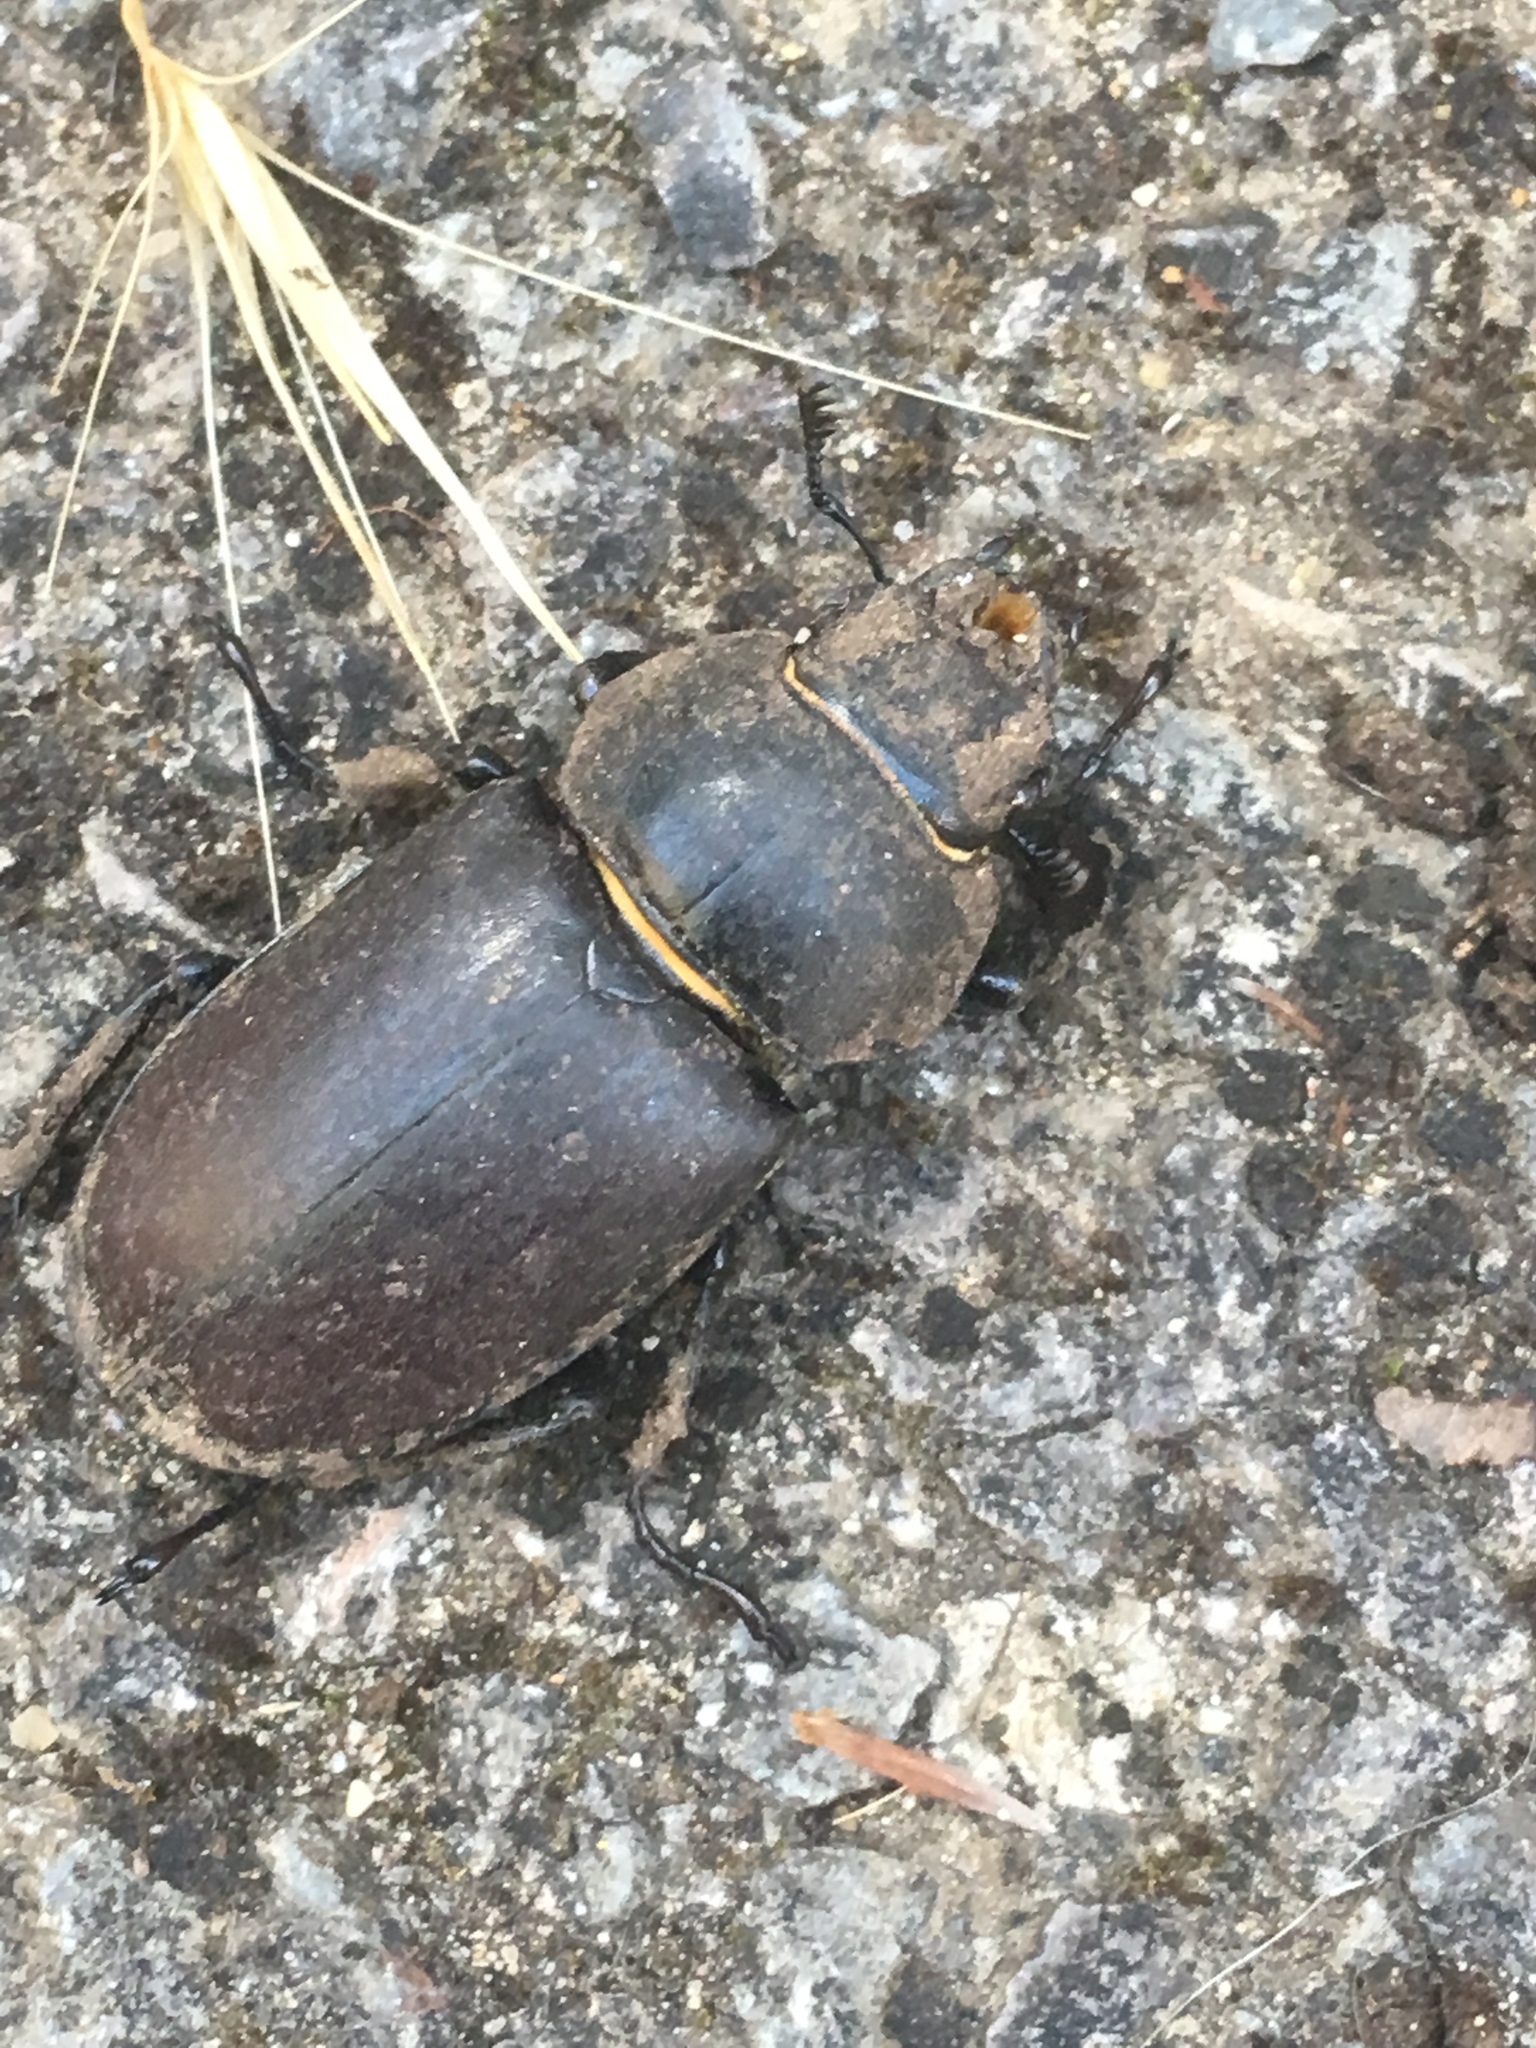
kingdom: Animalia
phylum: Arthropoda
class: Insecta
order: Coleoptera
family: Lucanidae
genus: Lucanus
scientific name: Lucanus cervus
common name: Stag beetle
